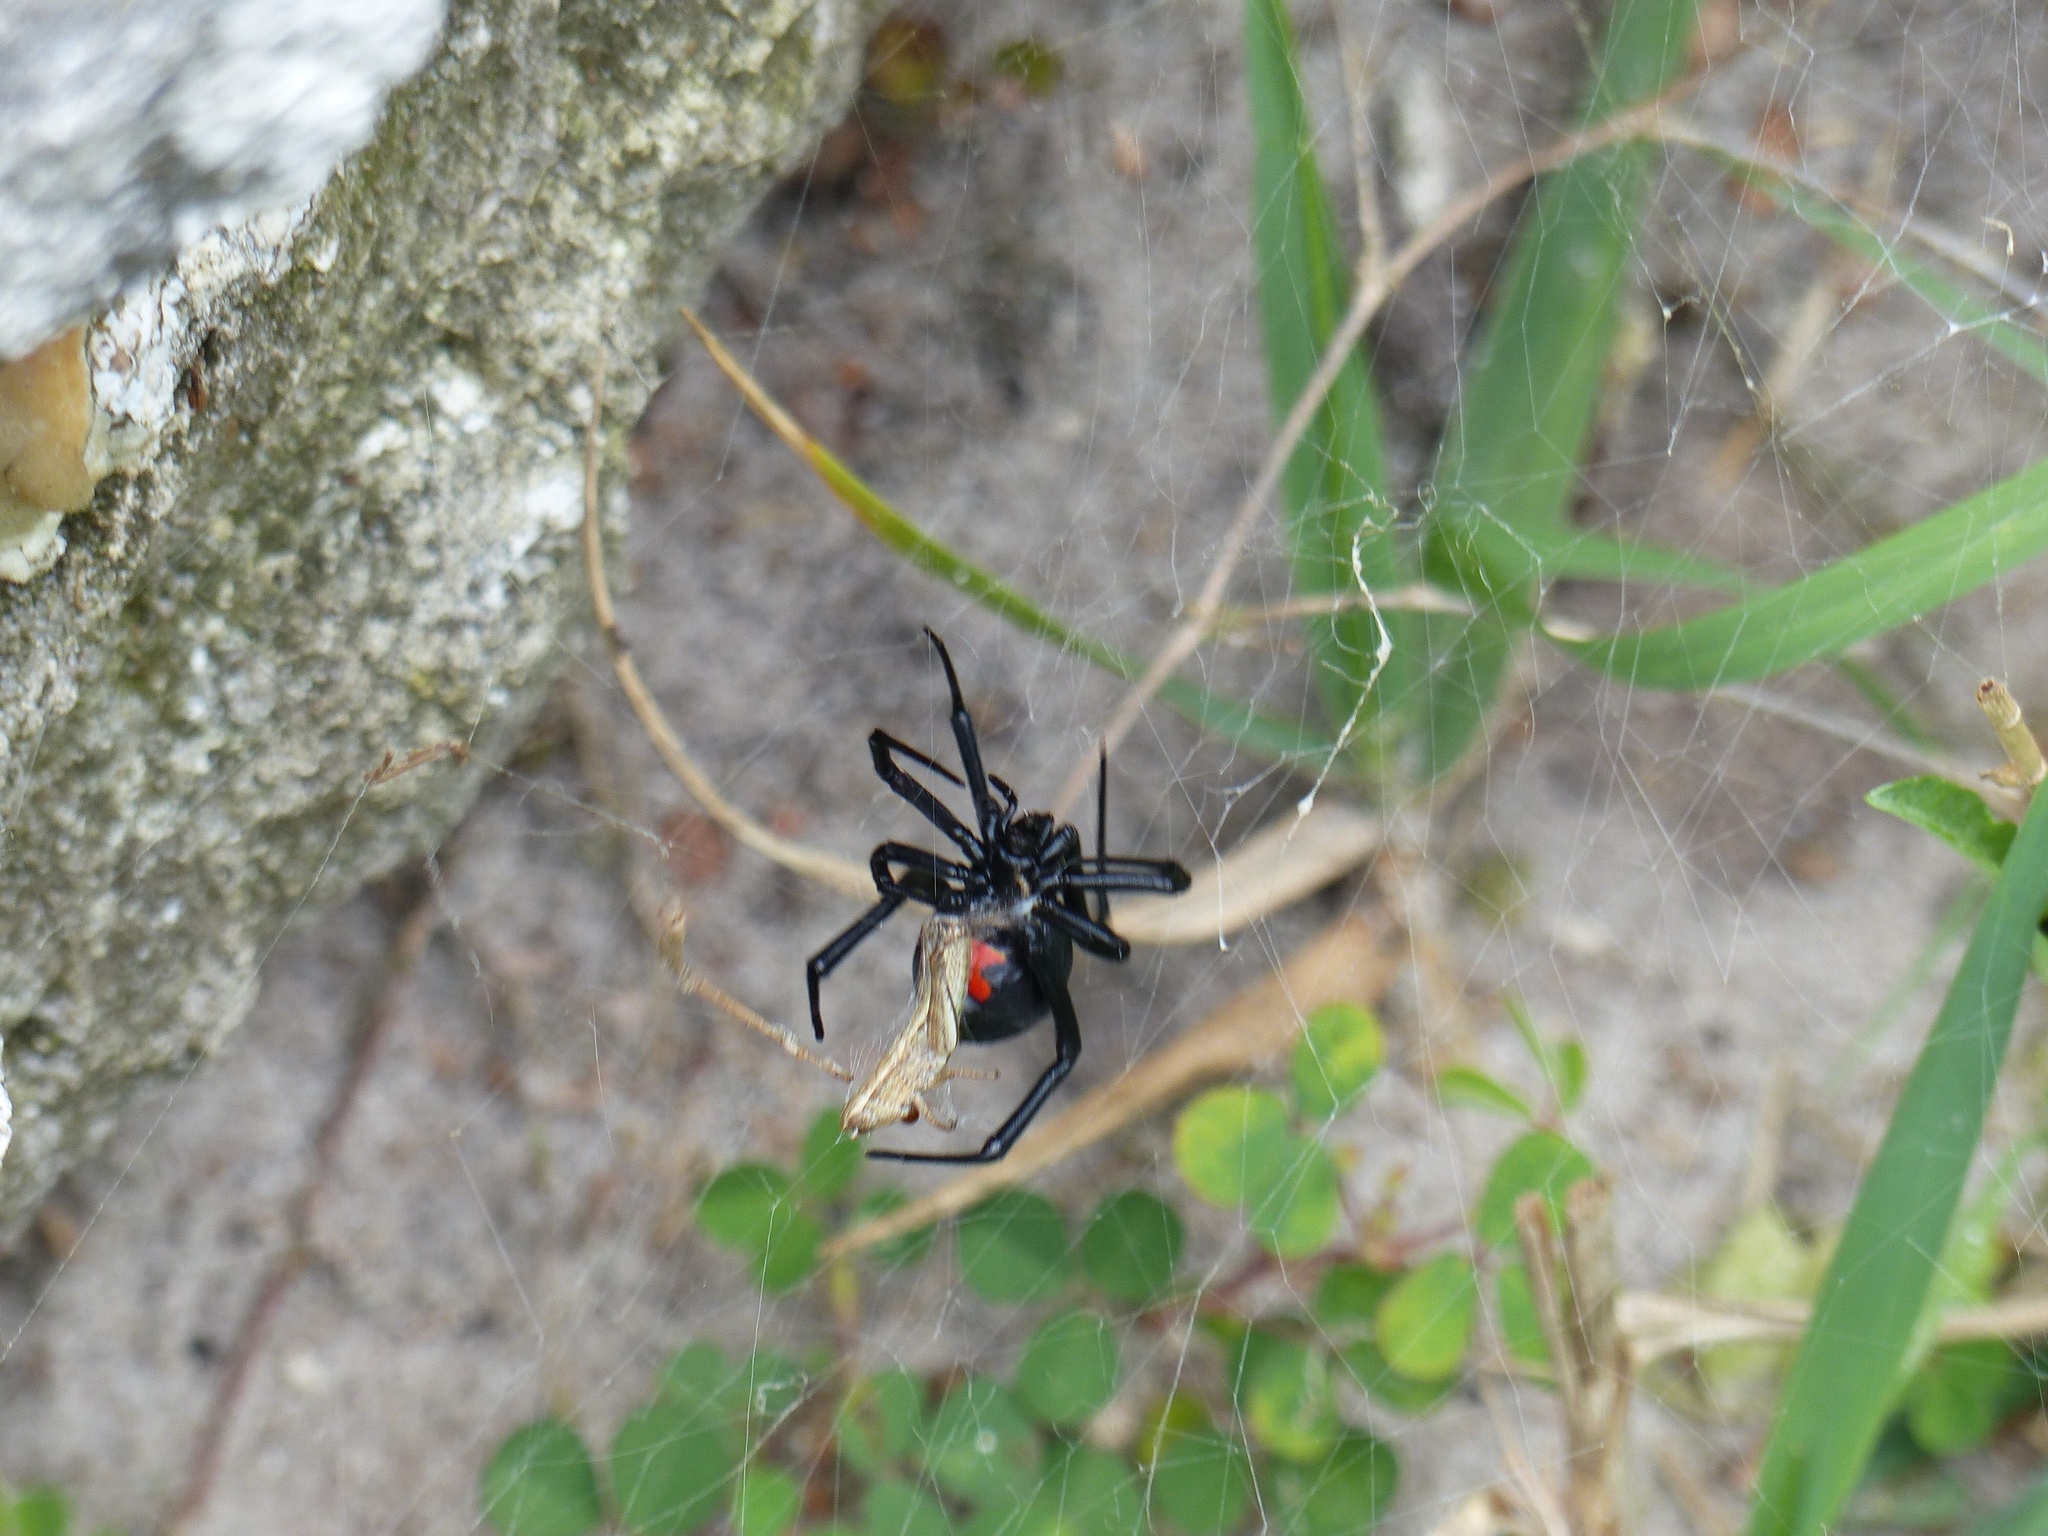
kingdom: Animalia
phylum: Arthropoda
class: Arachnida
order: Araneae
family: Theridiidae
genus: Latrodectus
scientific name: Latrodectus mactans
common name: Cobweb spiders
